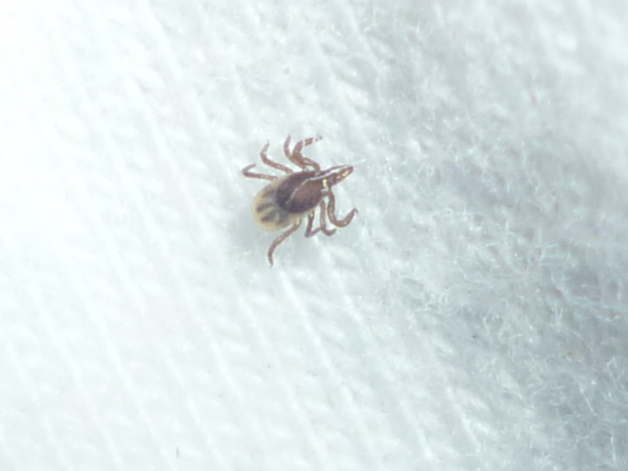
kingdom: Animalia
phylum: Arthropoda
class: Arachnida
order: Ixodida
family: Ixodidae
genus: Ixodes
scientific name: Ixodes scapularis
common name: Black legged tick
